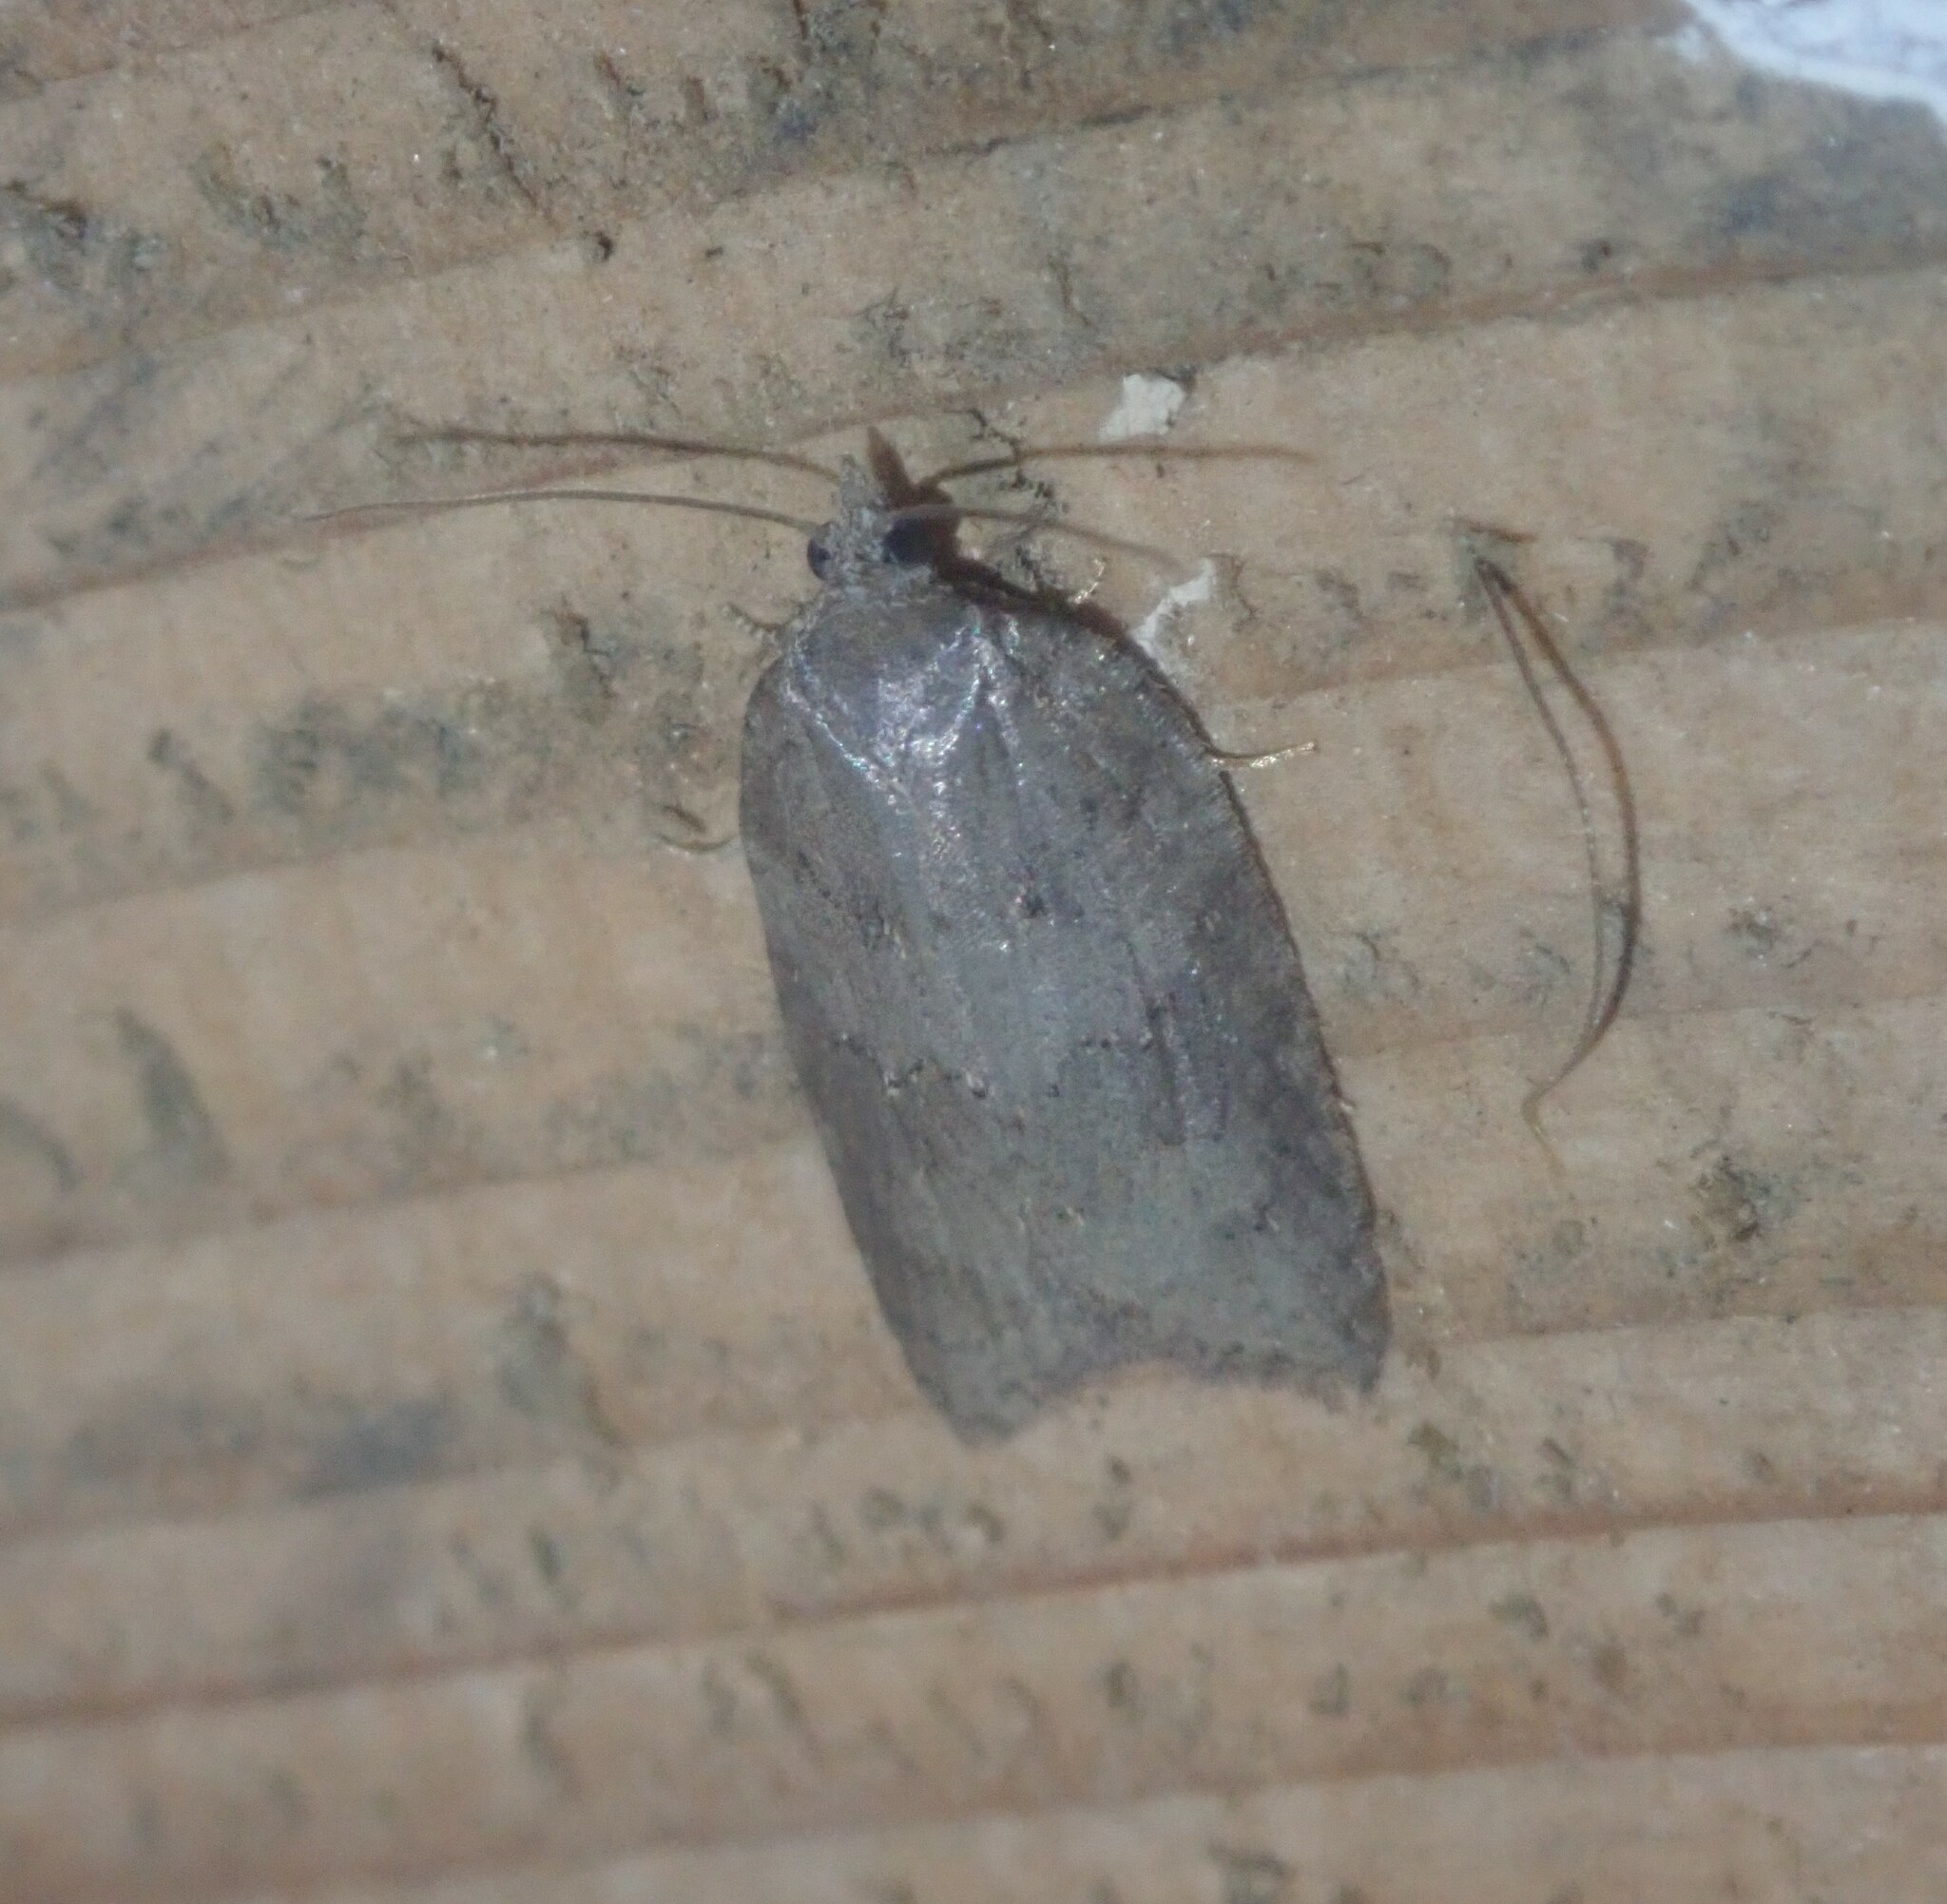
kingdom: Animalia
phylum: Arthropoda
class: Insecta
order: Lepidoptera
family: Tortricidae
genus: Acleris
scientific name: Acleris sparsana
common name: Ashy button
